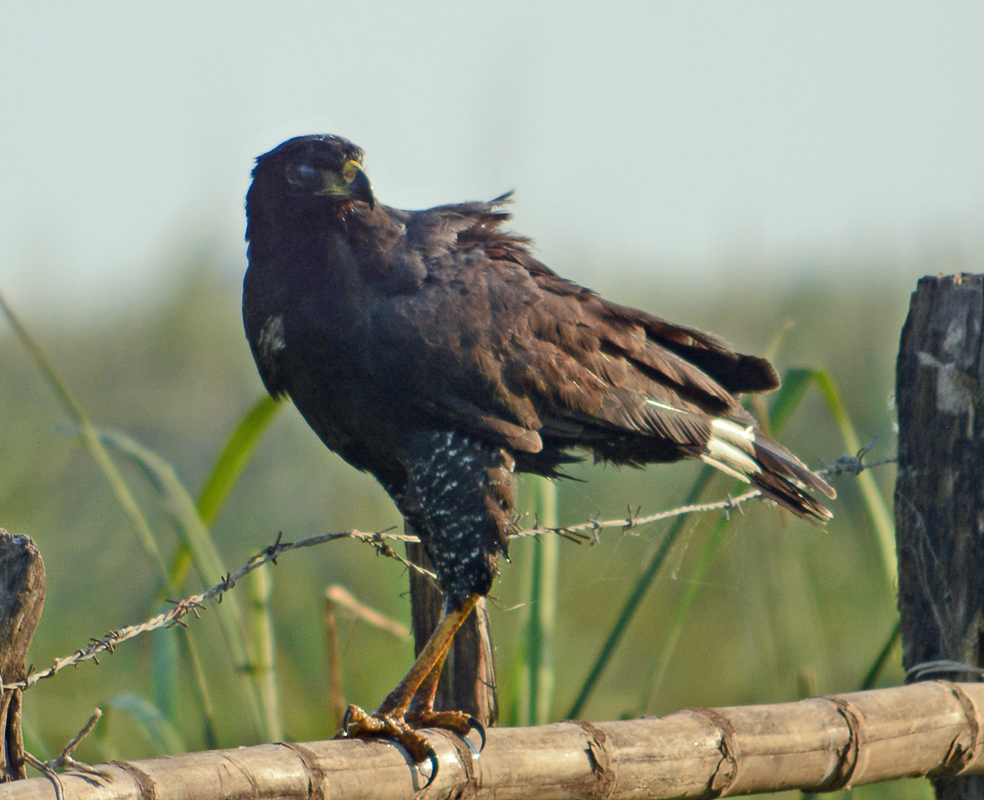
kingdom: Animalia
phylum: Chordata
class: Aves
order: Accipitriformes
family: Accipitridae
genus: Buteogallus
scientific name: Buteogallus urubitinga
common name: Great black hawk
